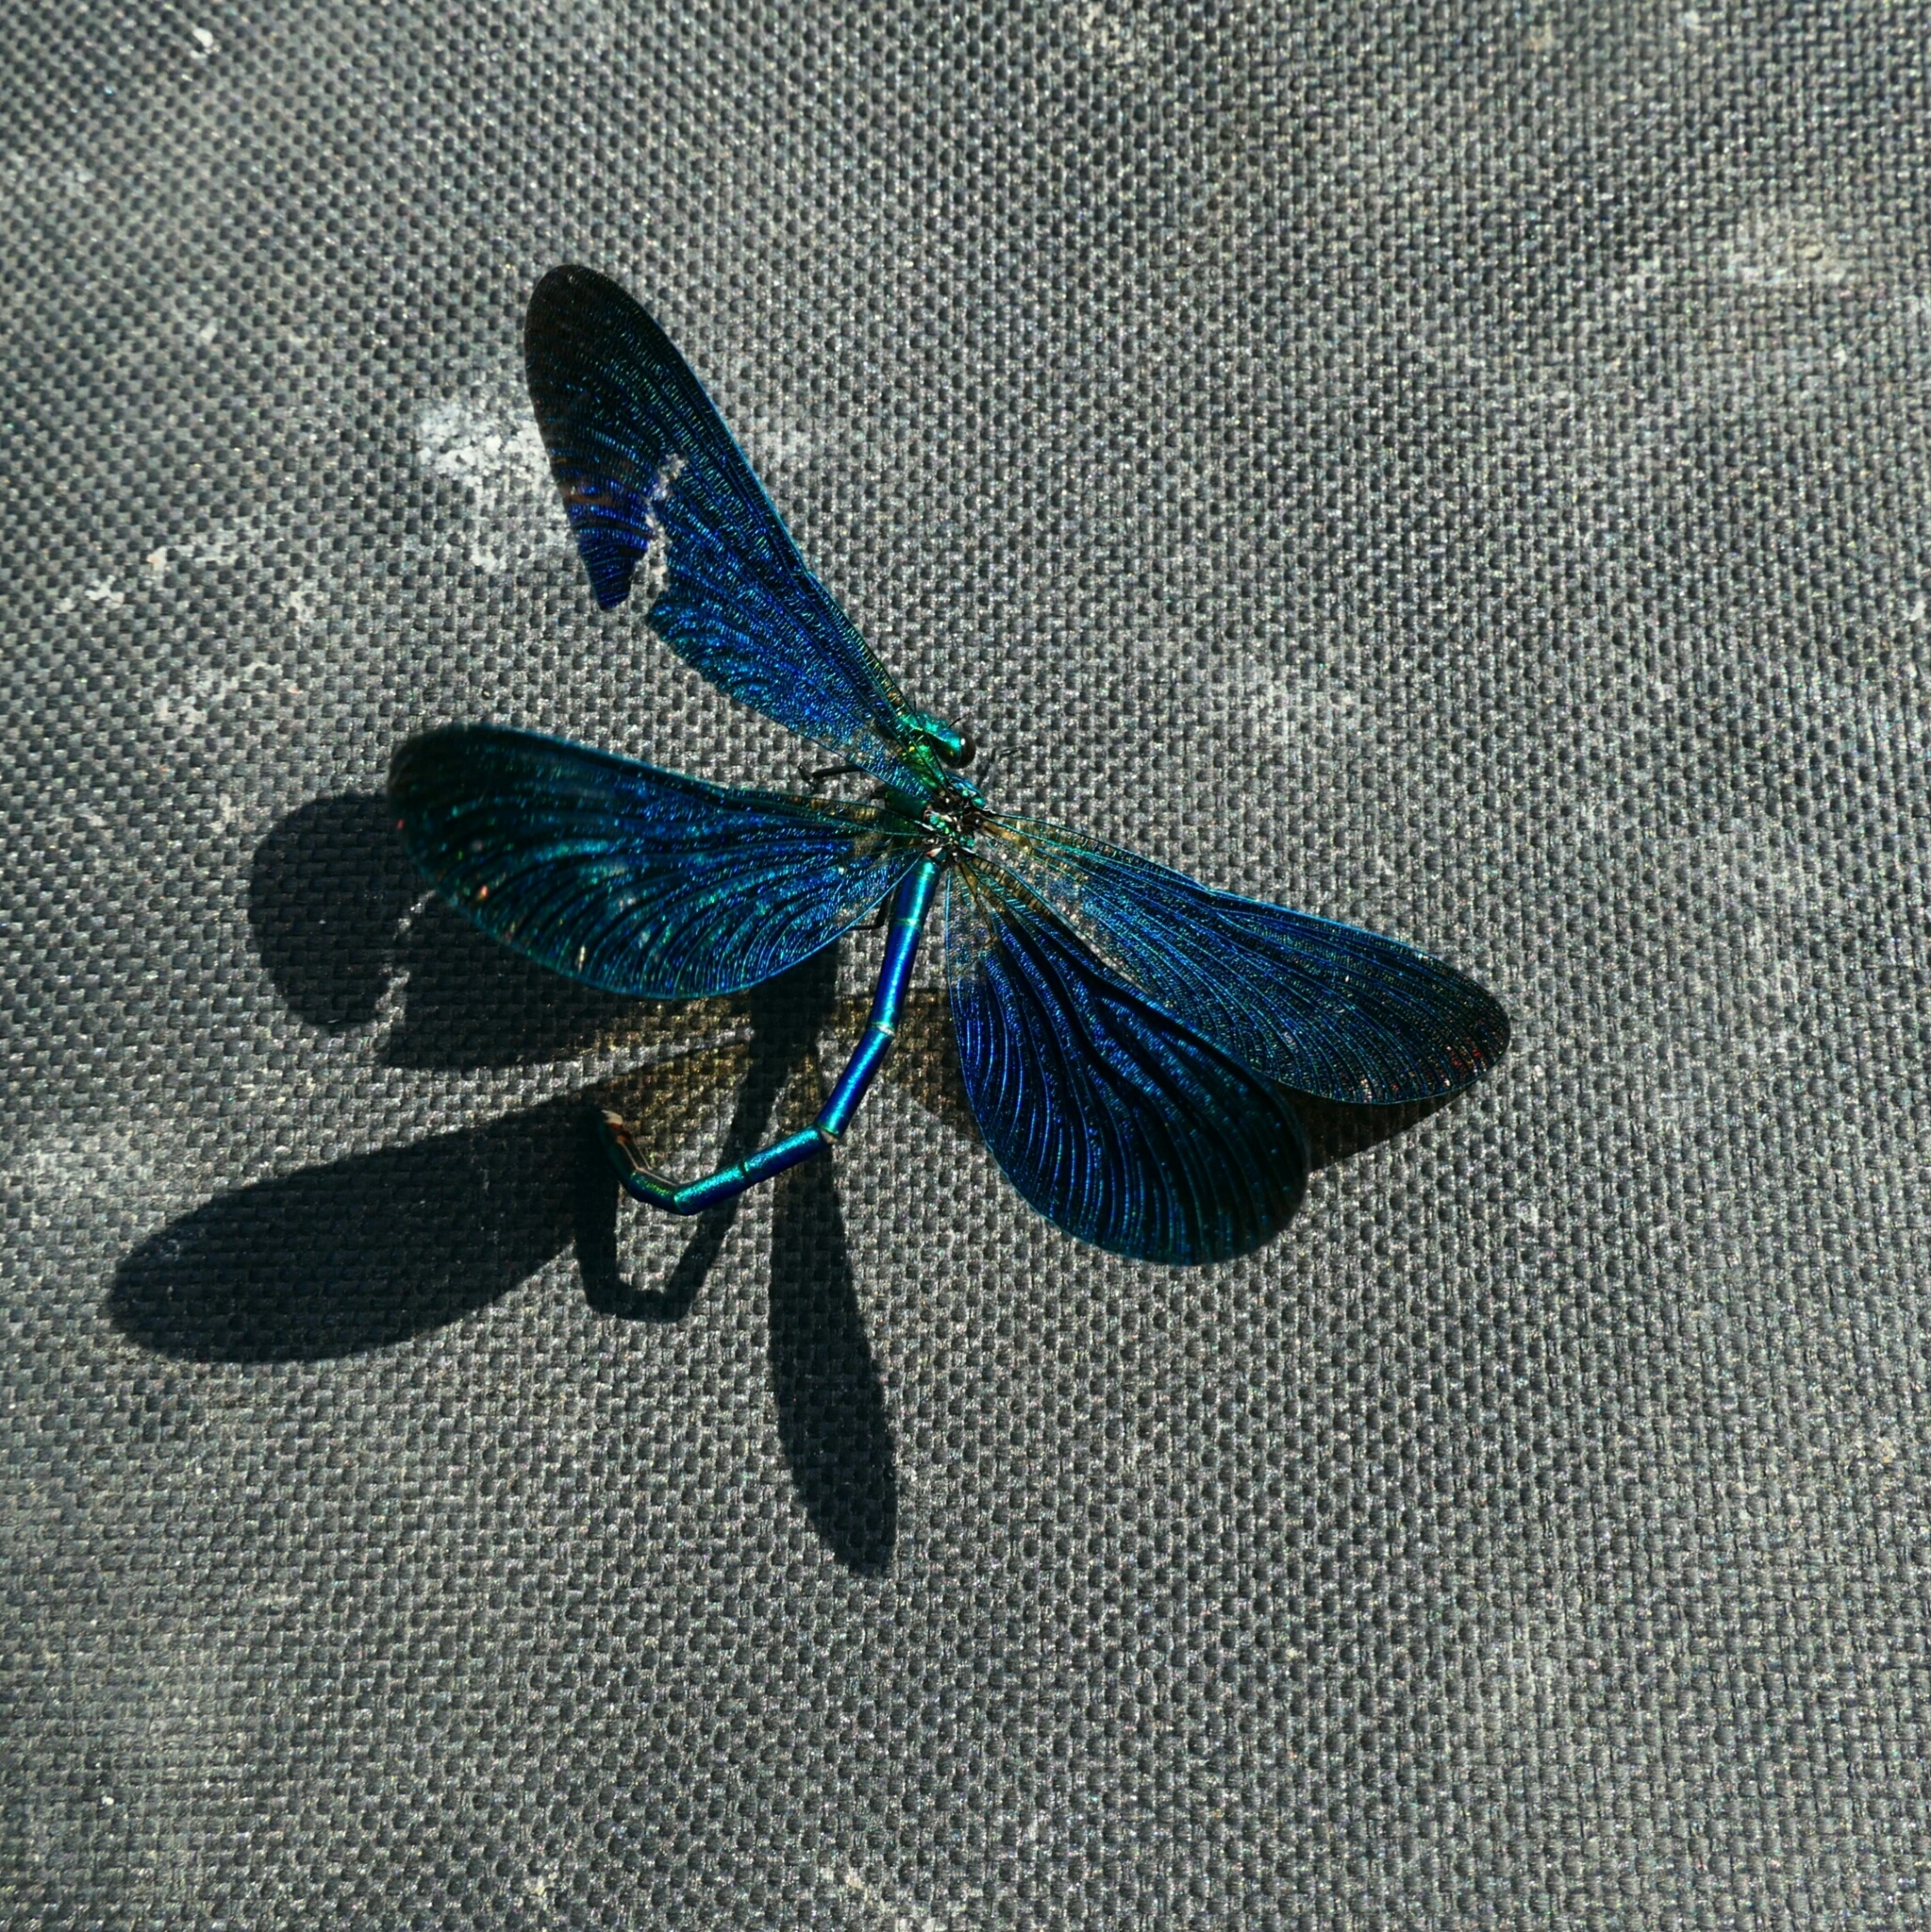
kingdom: Animalia
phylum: Arthropoda
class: Insecta
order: Odonata
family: Calopterygidae
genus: Calopteryx
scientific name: Calopteryx virgo
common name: Beautiful demoiselle
